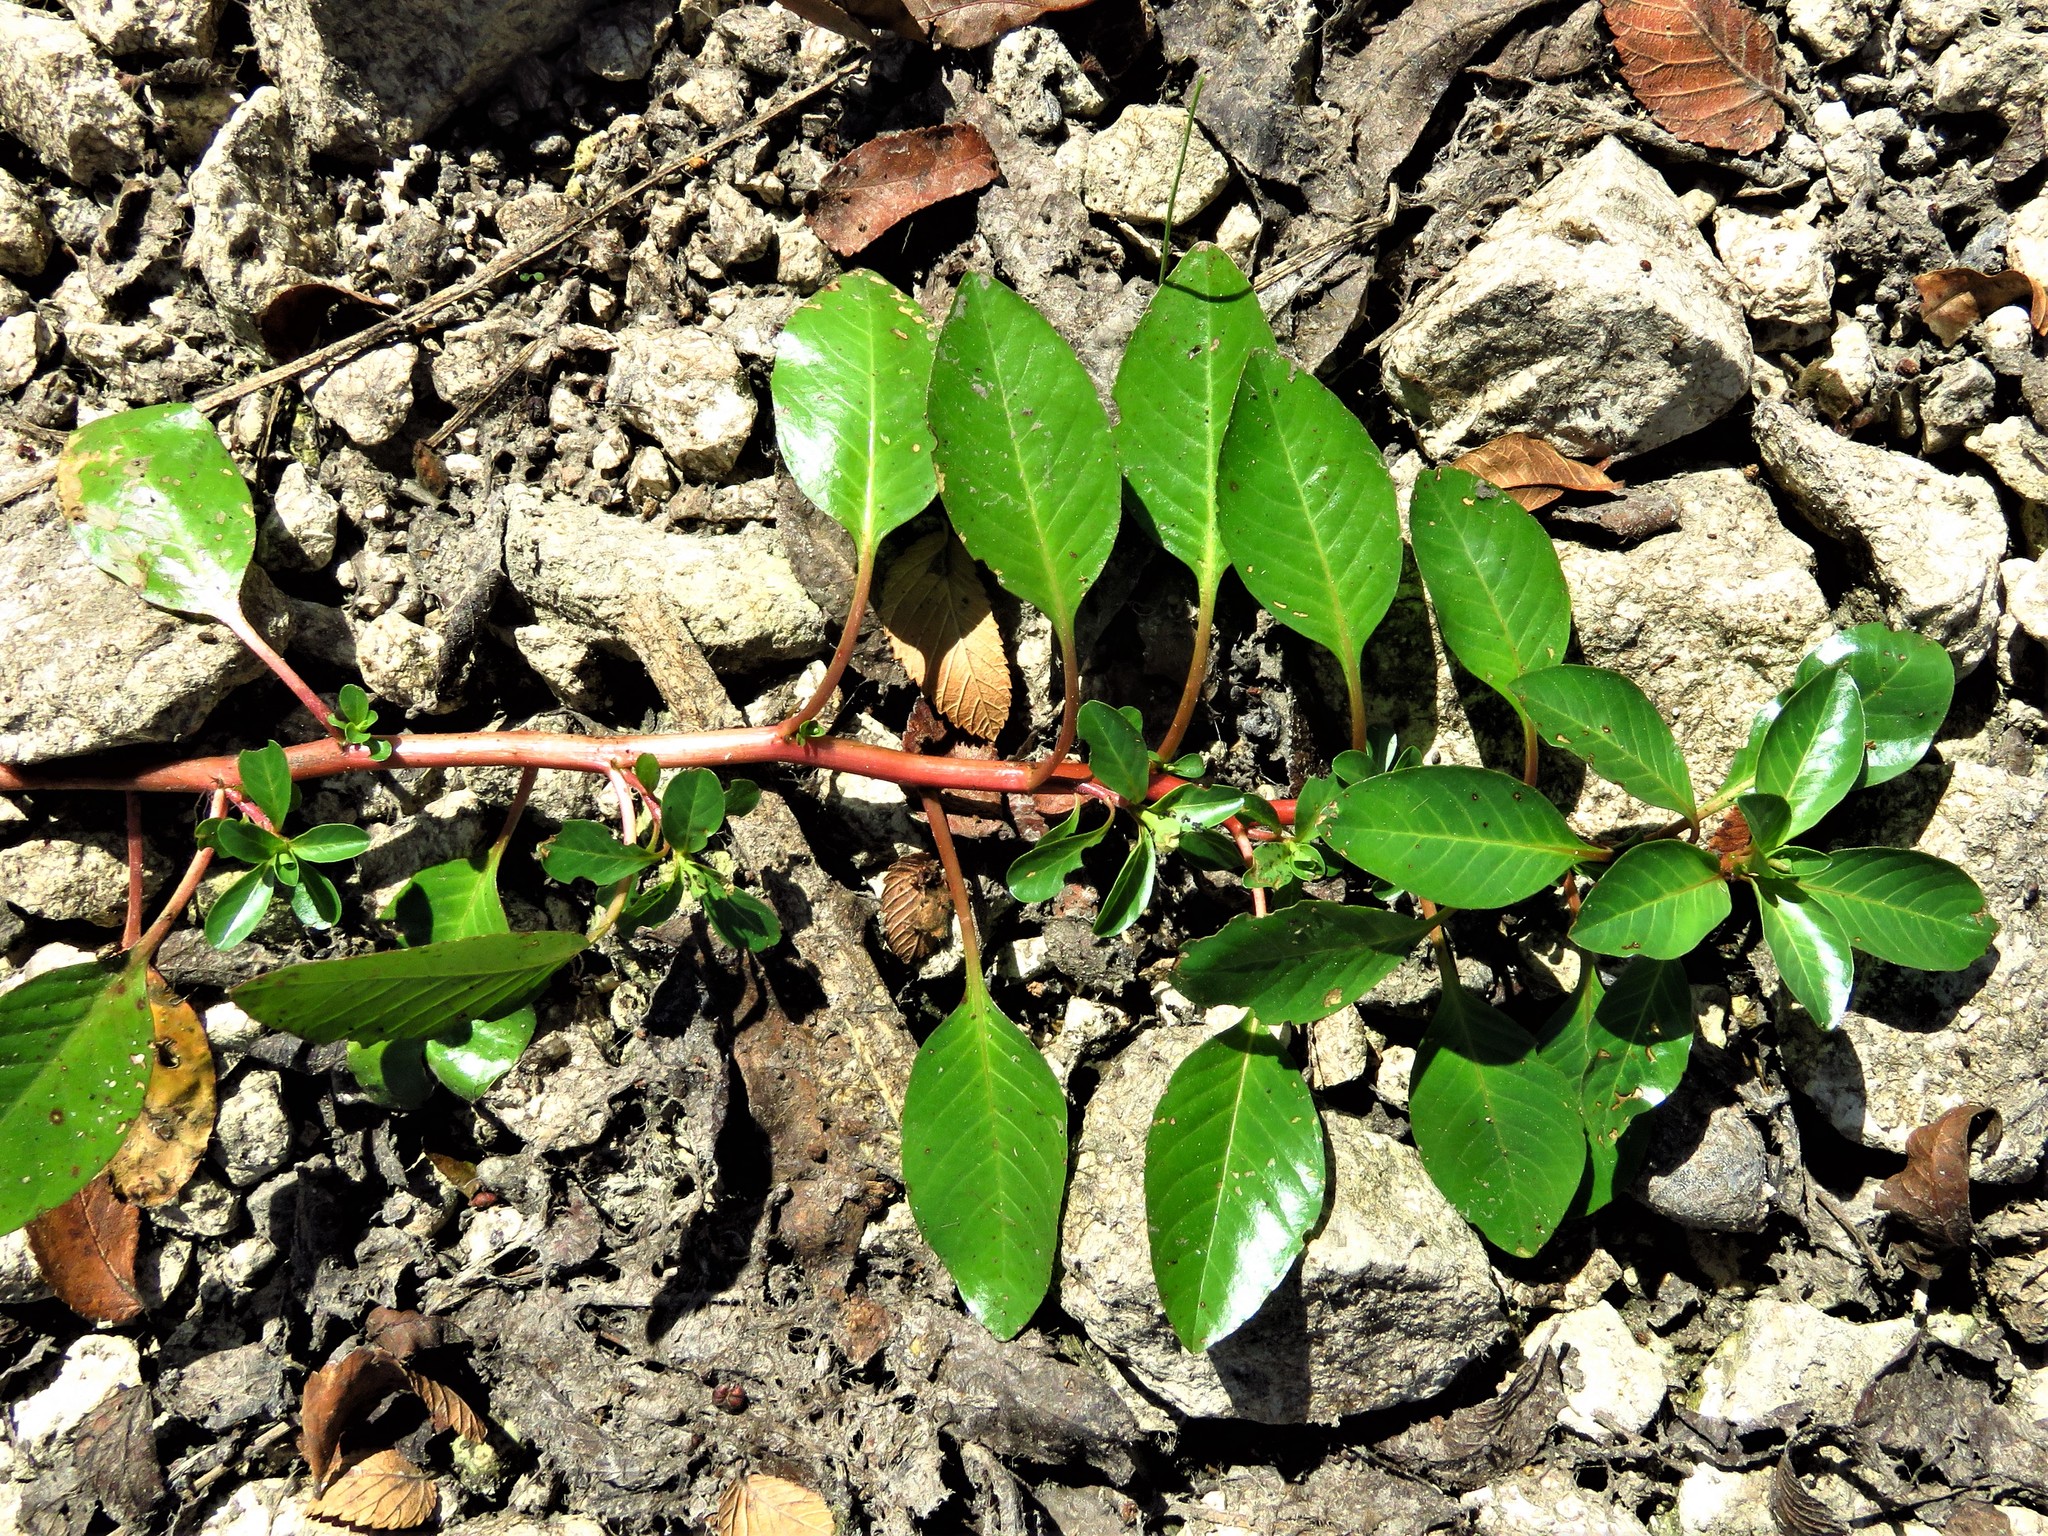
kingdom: Plantae
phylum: Tracheophyta
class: Magnoliopsida
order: Myrtales
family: Onagraceae
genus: Ludwigia
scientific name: Ludwigia peploides
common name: Floating primrose-willow
